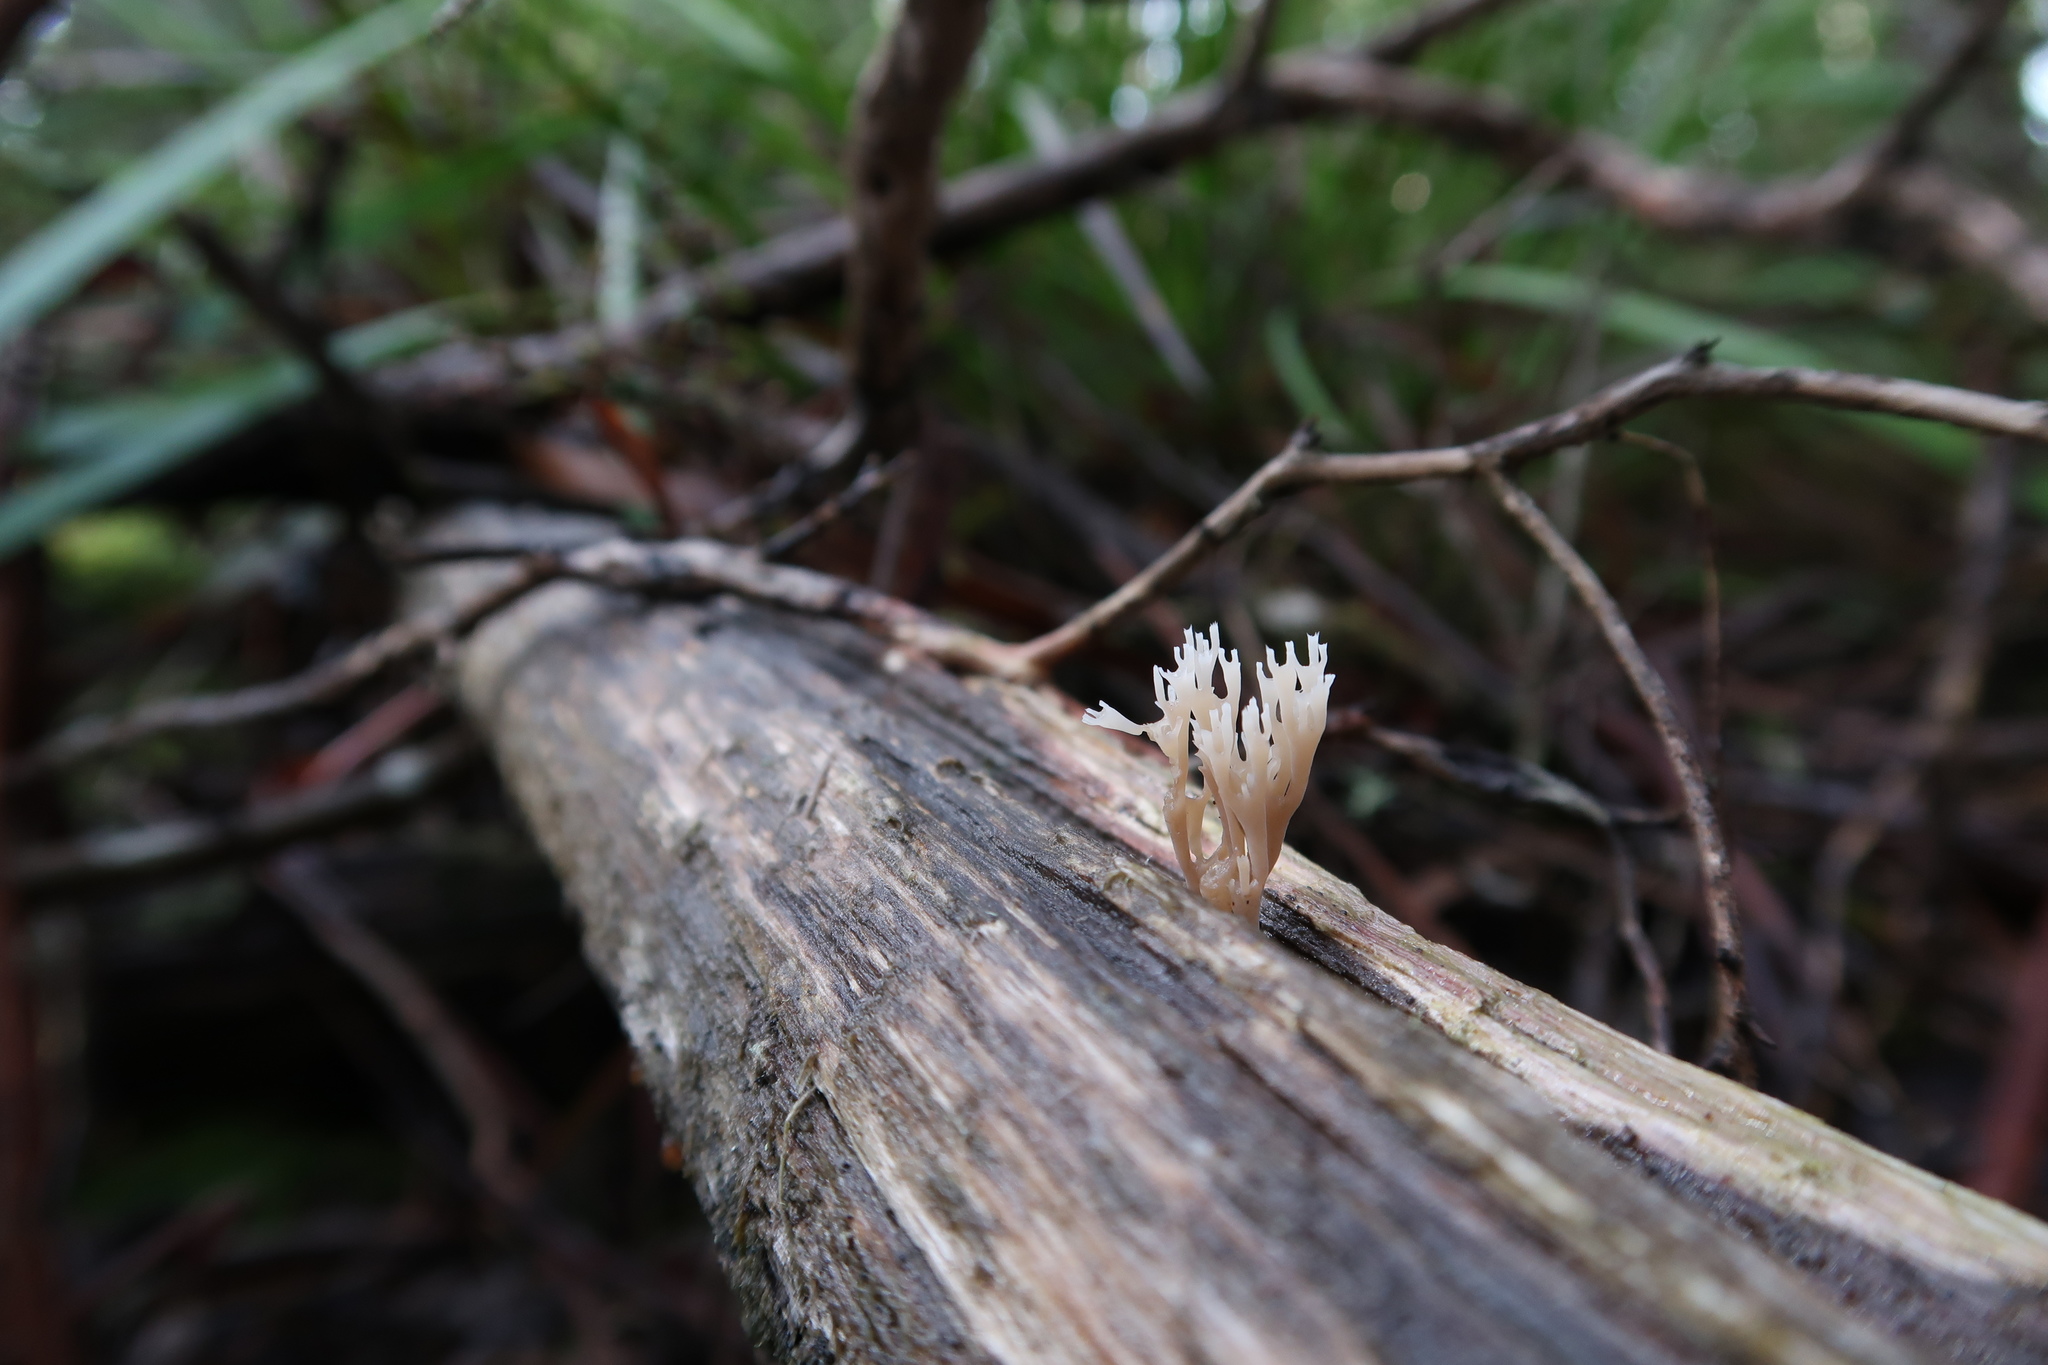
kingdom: Fungi
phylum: Basidiomycota
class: Agaricomycetes
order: Russulales
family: Auriscalpiaceae
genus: Artomyces
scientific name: Artomyces austropiperatus
